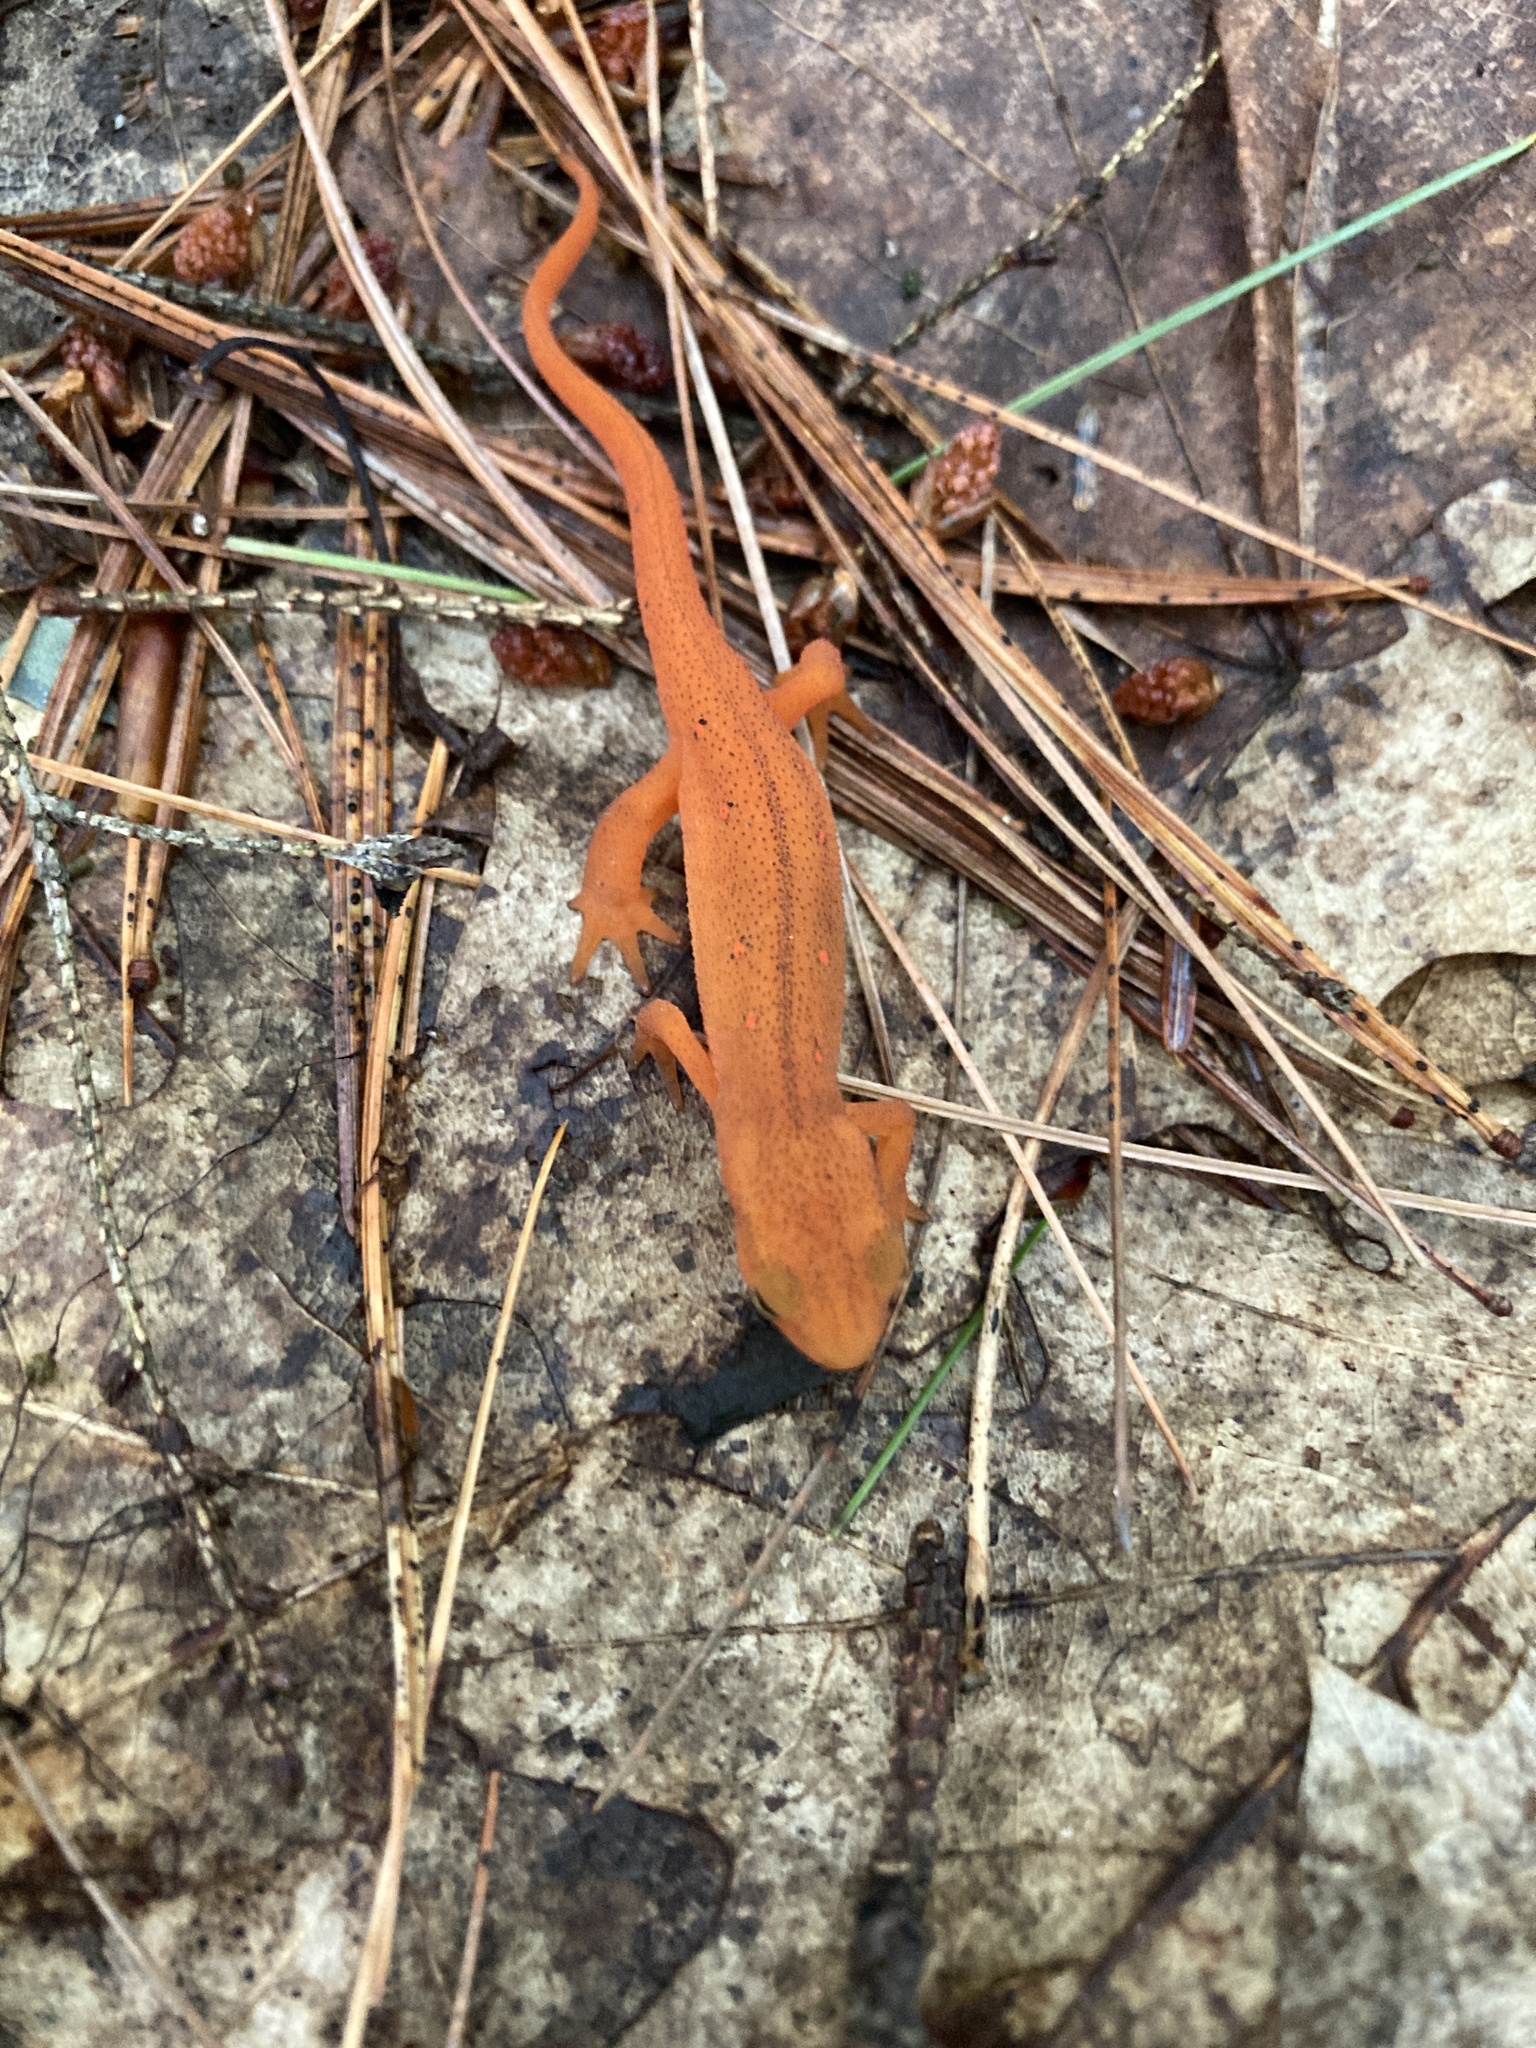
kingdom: Animalia
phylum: Chordata
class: Amphibia
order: Caudata
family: Salamandridae
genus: Notophthalmus
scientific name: Notophthalmus viridescens
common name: Eastern newt
